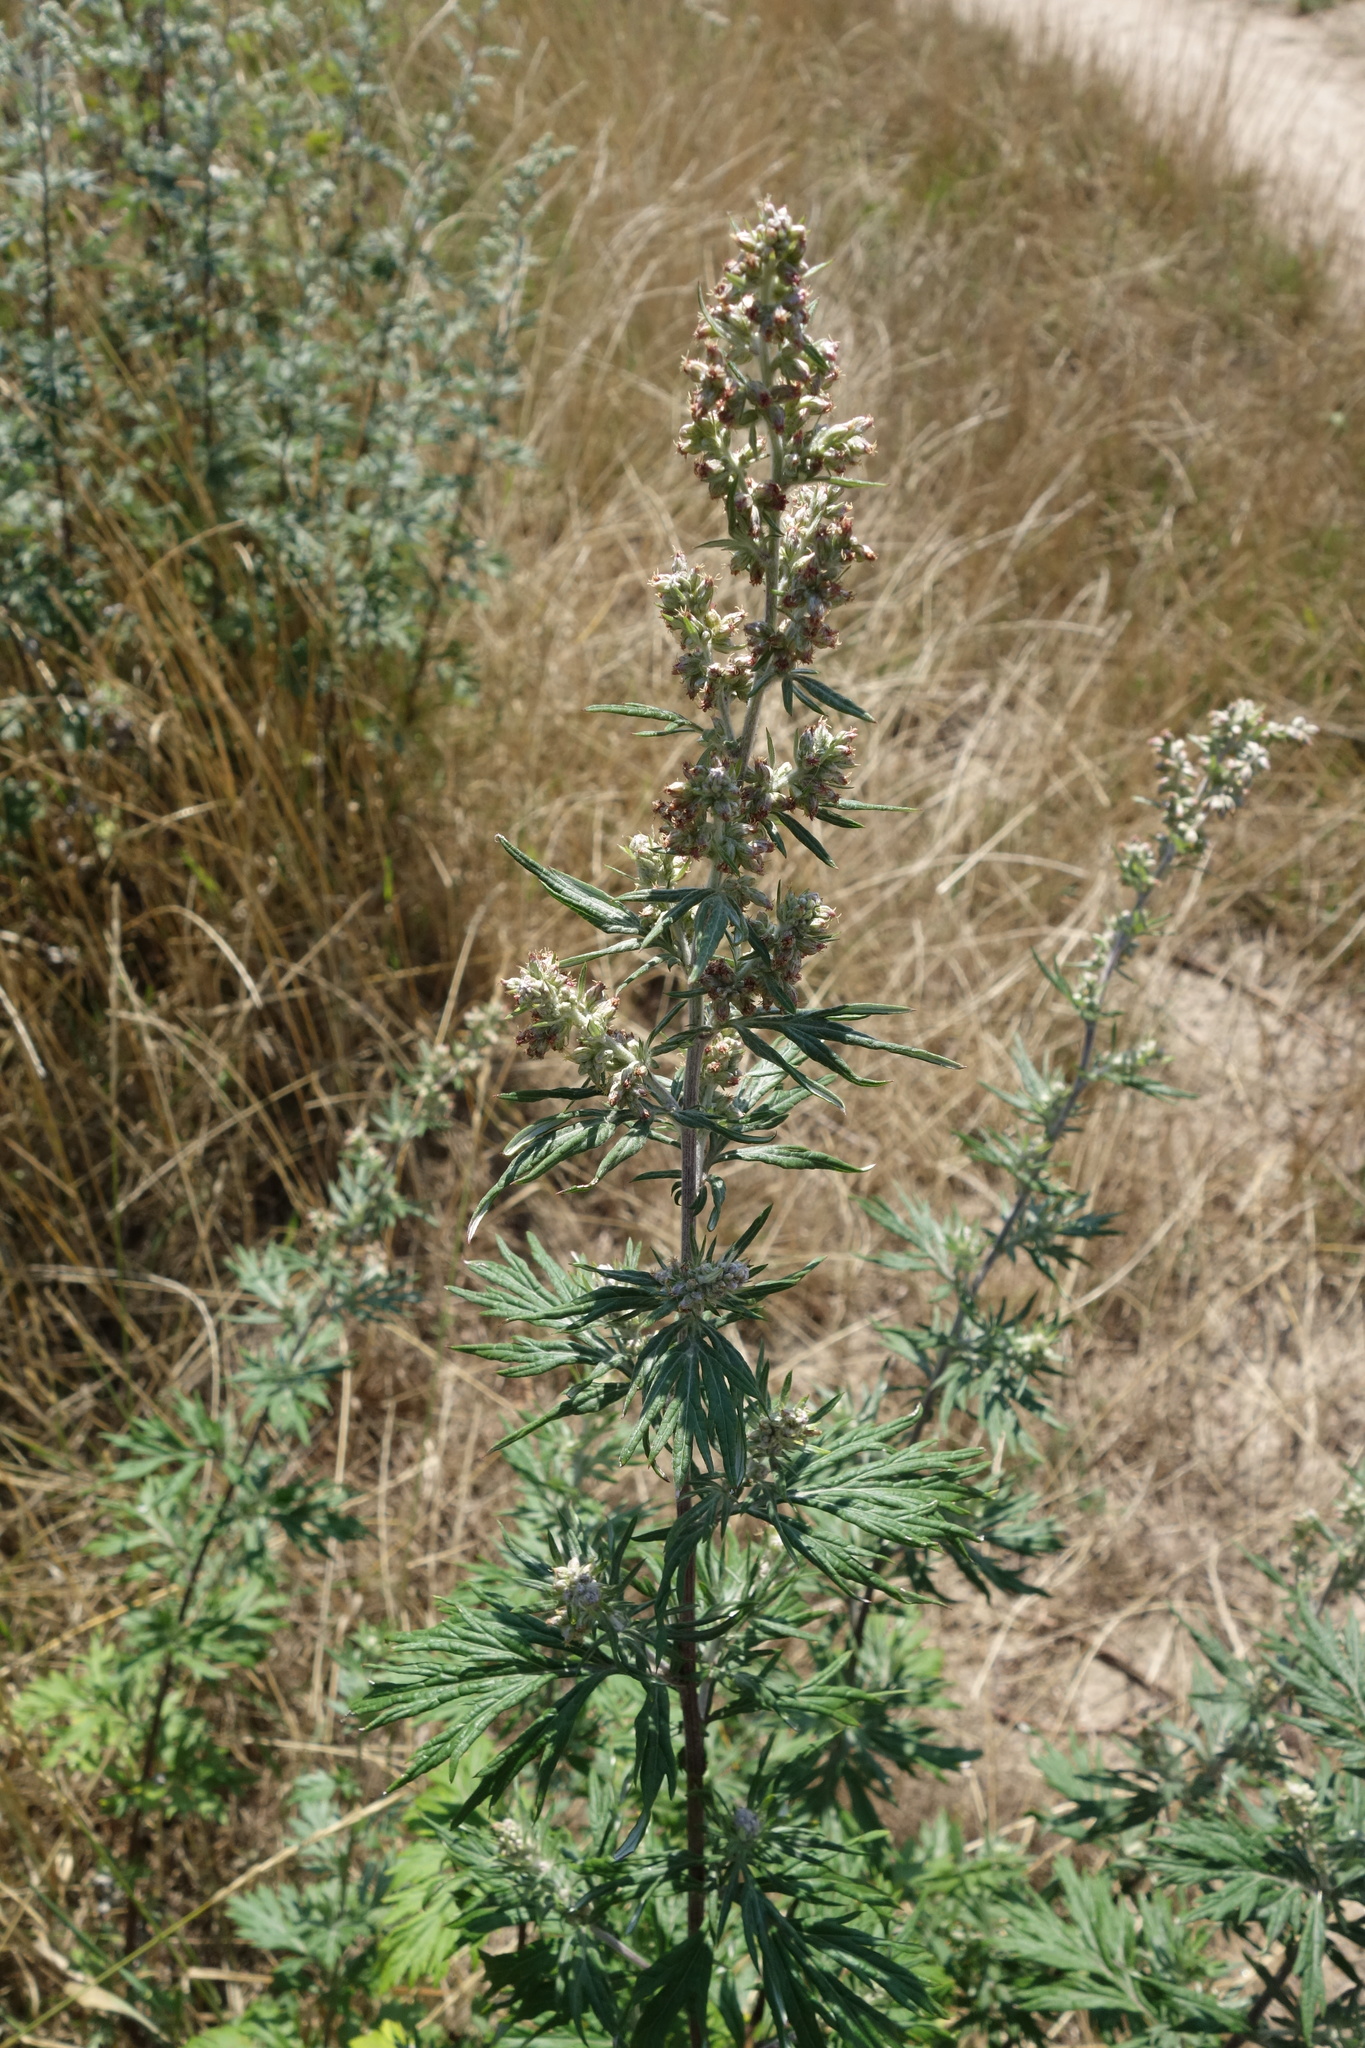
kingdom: Plantae
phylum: Tracheophyta
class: Magnoliopsida
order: Asterales
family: Asteraceae
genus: Artemisia
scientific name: Artemisia vulgaris
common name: Mugwort
